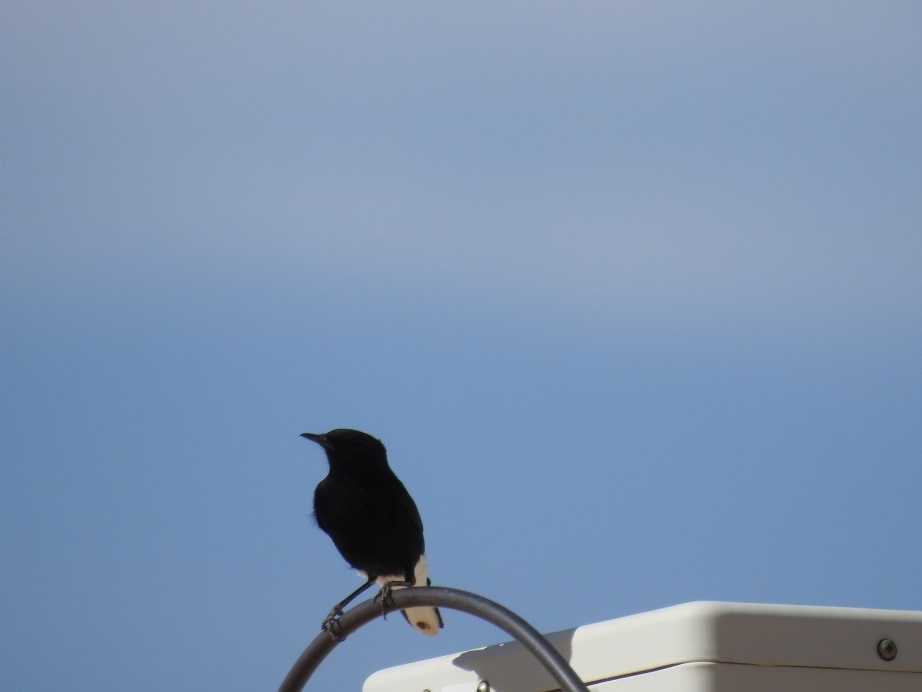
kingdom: Animalia
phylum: Chordata
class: Aves
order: Passeriformes
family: Muscicapidae
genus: Oenanthe
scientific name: Oenanthe leucopyga
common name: White-crowned wheatear
